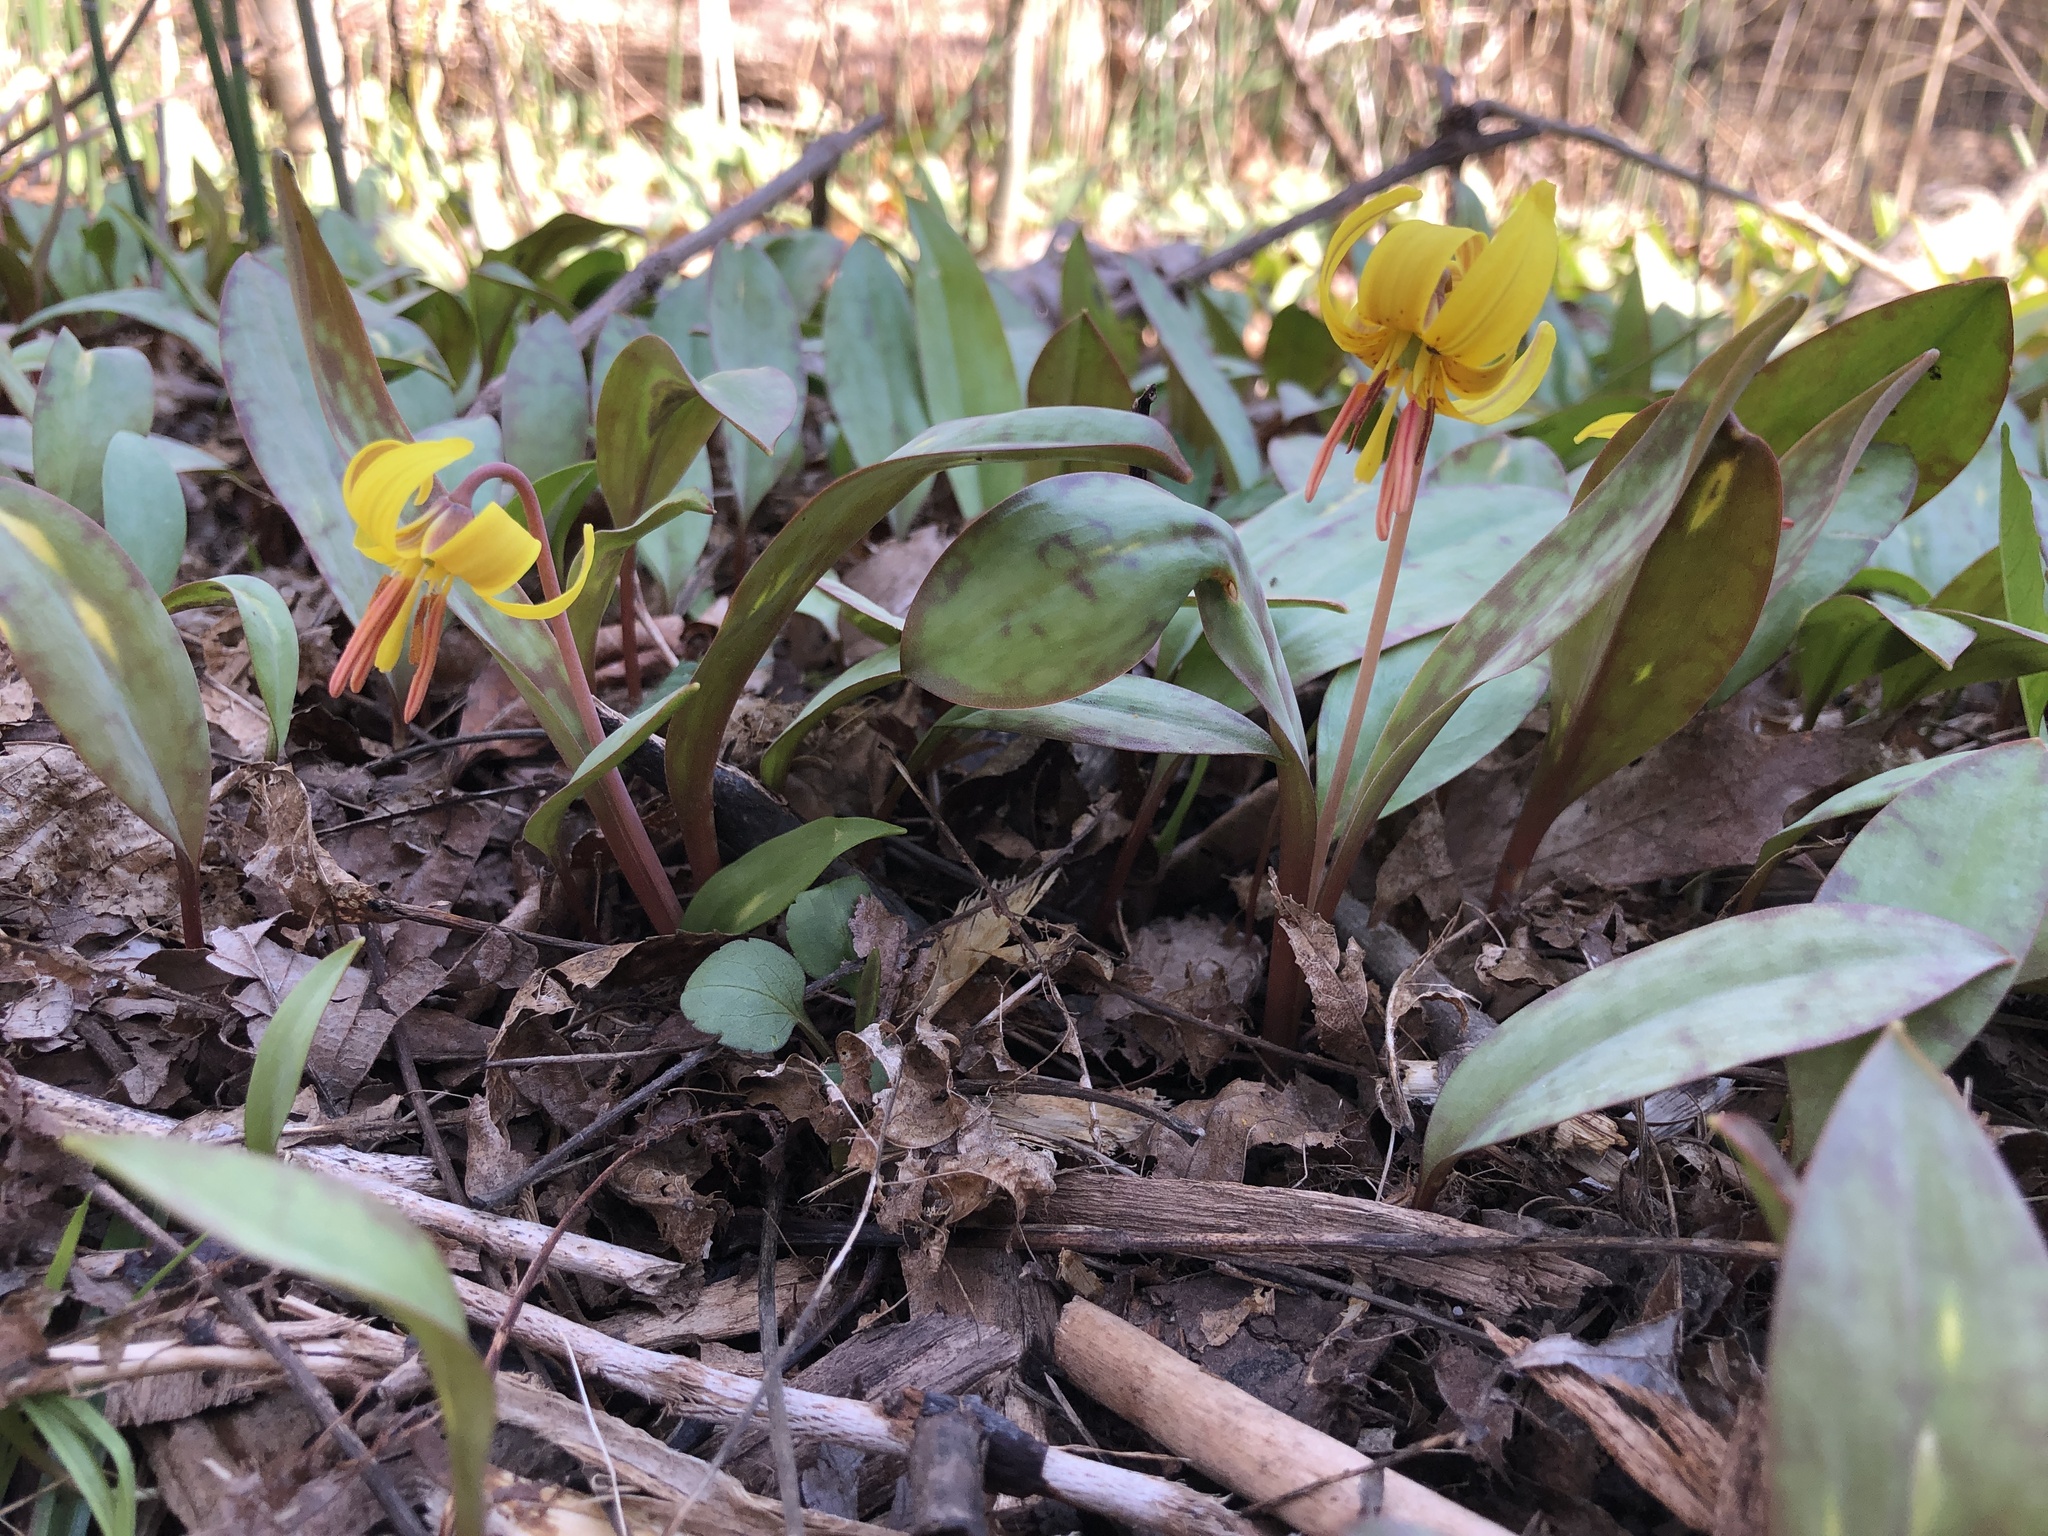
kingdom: Plantae
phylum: Tracheophyta
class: Liliopsida
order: Liliales
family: Liliaceae
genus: Erythronium
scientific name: Erythronium americanum
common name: Yellow adder's-tongue
